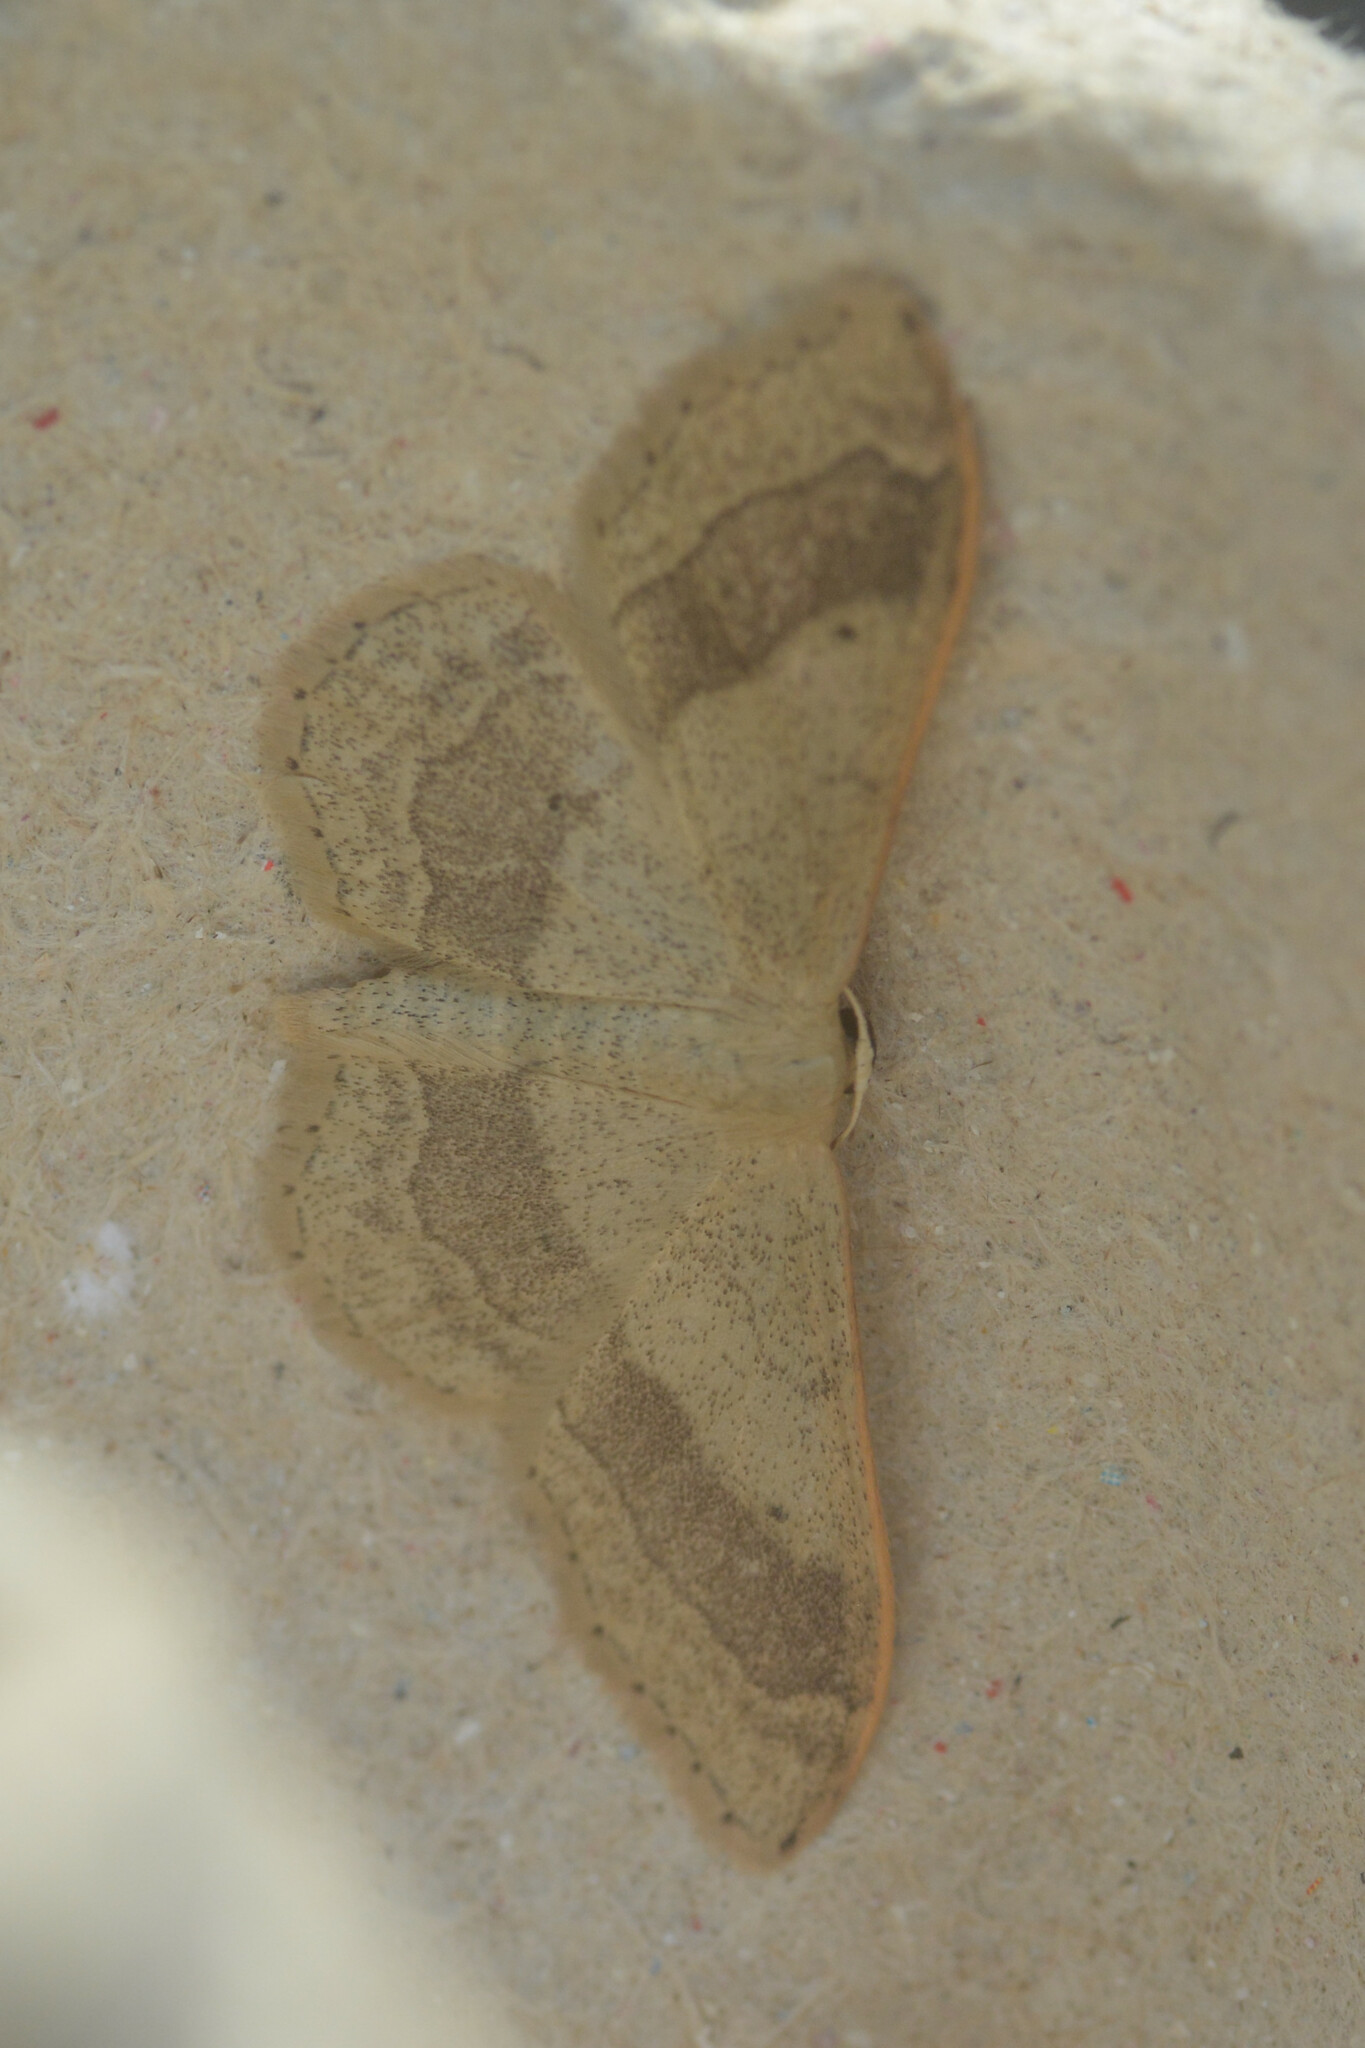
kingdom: Animalia
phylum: Arthropoda
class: Insecta
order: Lepidoptera
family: Geometridae
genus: Idaea
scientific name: Idaea aversata
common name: Riband wave
